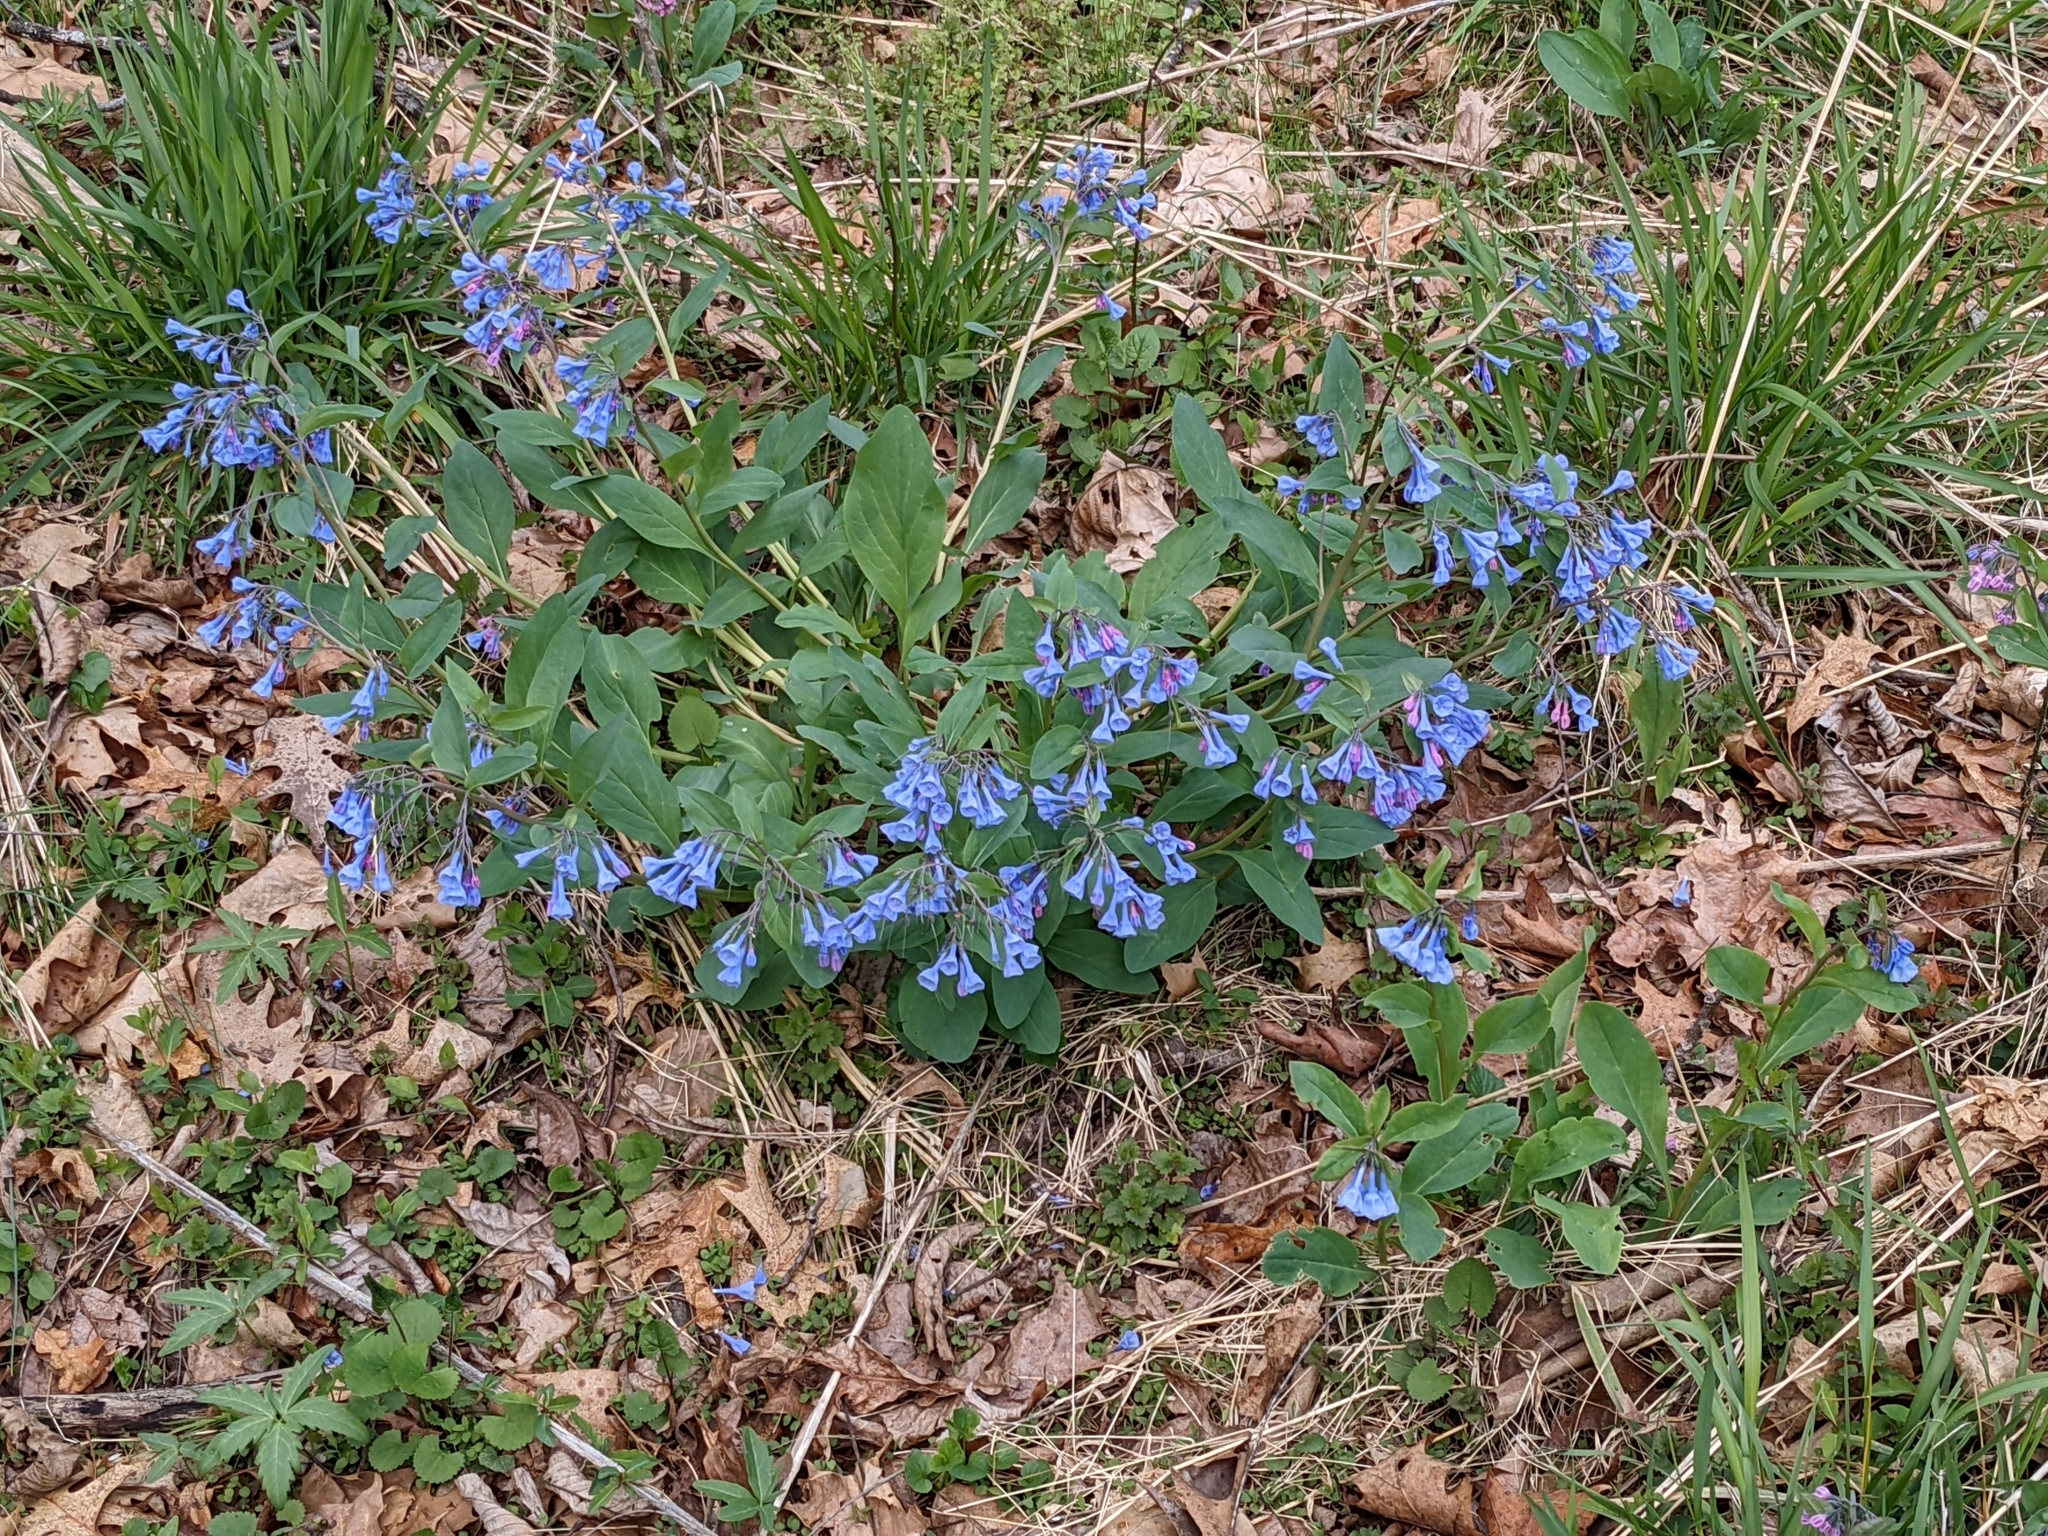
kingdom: Plantae
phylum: Tracheophyta
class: Magnoliopsida
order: Boraginales
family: Boraginaceae
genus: Mertensia
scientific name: Mertensia virginica
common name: Virginia bluebells
